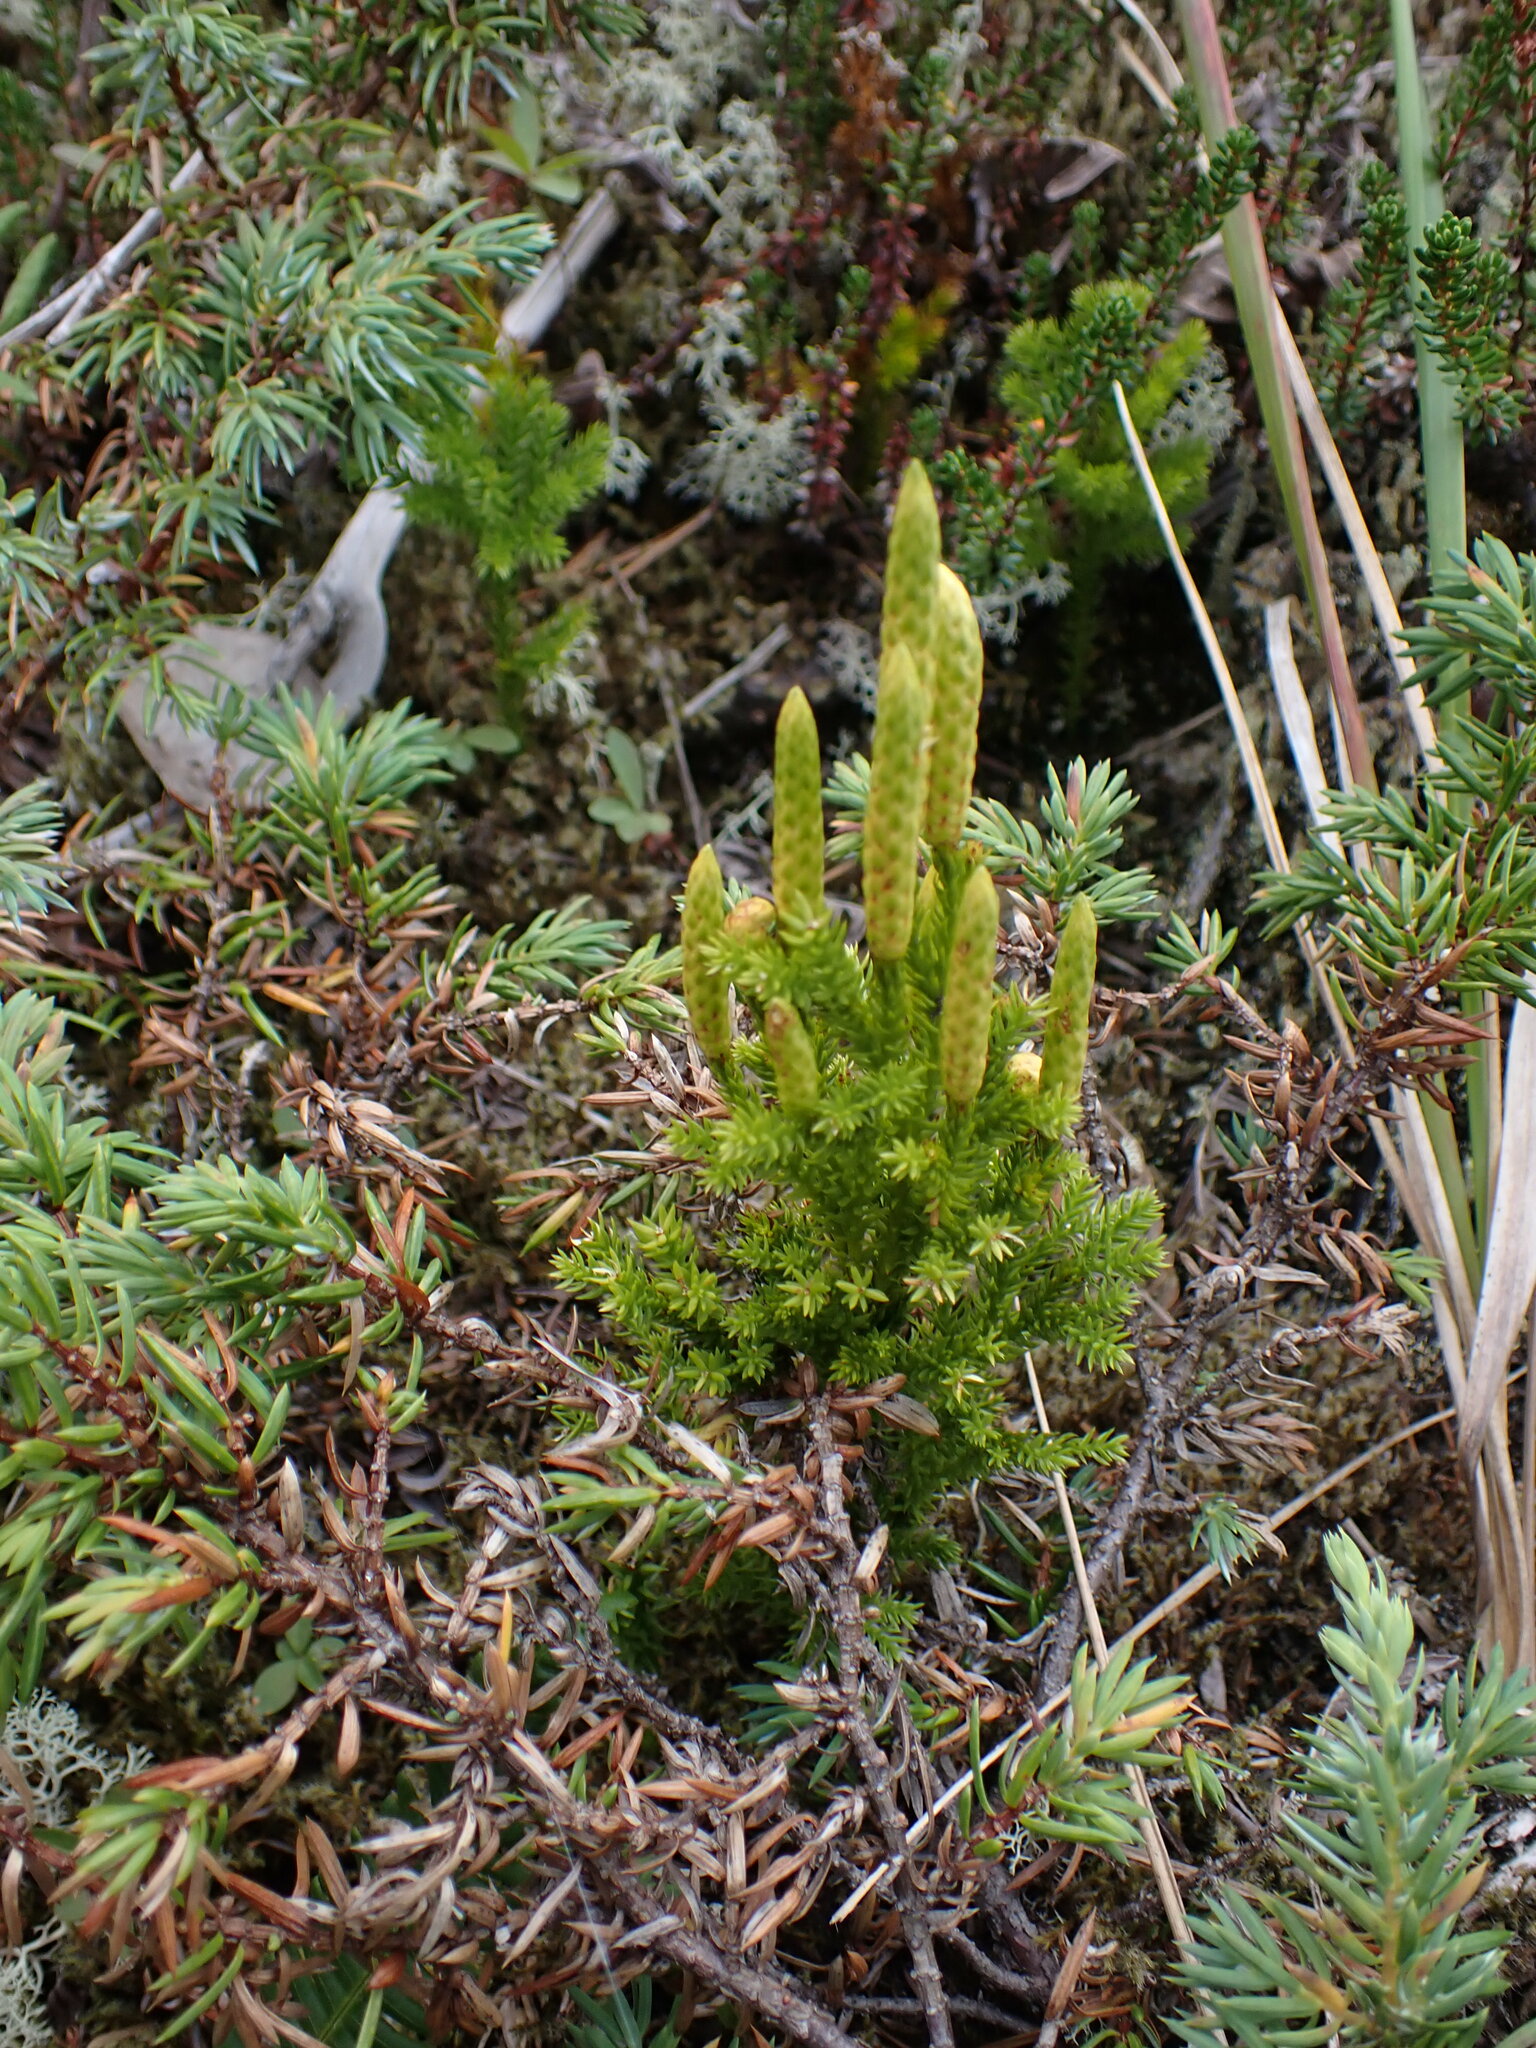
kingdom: Plantae
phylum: Tracheophyta
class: Lycopodiopsida
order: Lycopodiales
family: Lycopodiaceae
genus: Dendrolycopodium
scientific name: Dendrolycopodium dendroideum
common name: Northern tree-clubmoss
